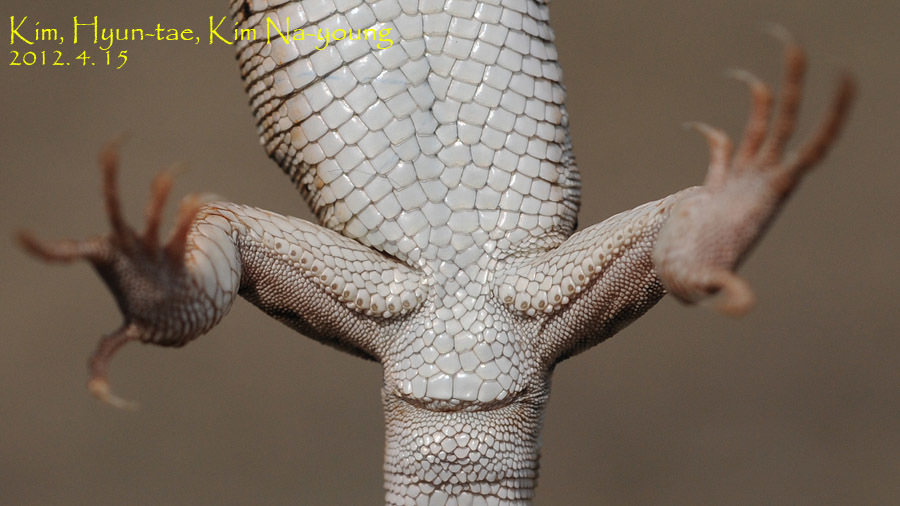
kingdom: Animalia
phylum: Chordata
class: Squamata
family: Lacertidae
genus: Eremias
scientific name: Eremias argus
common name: Mongolia racerunner
